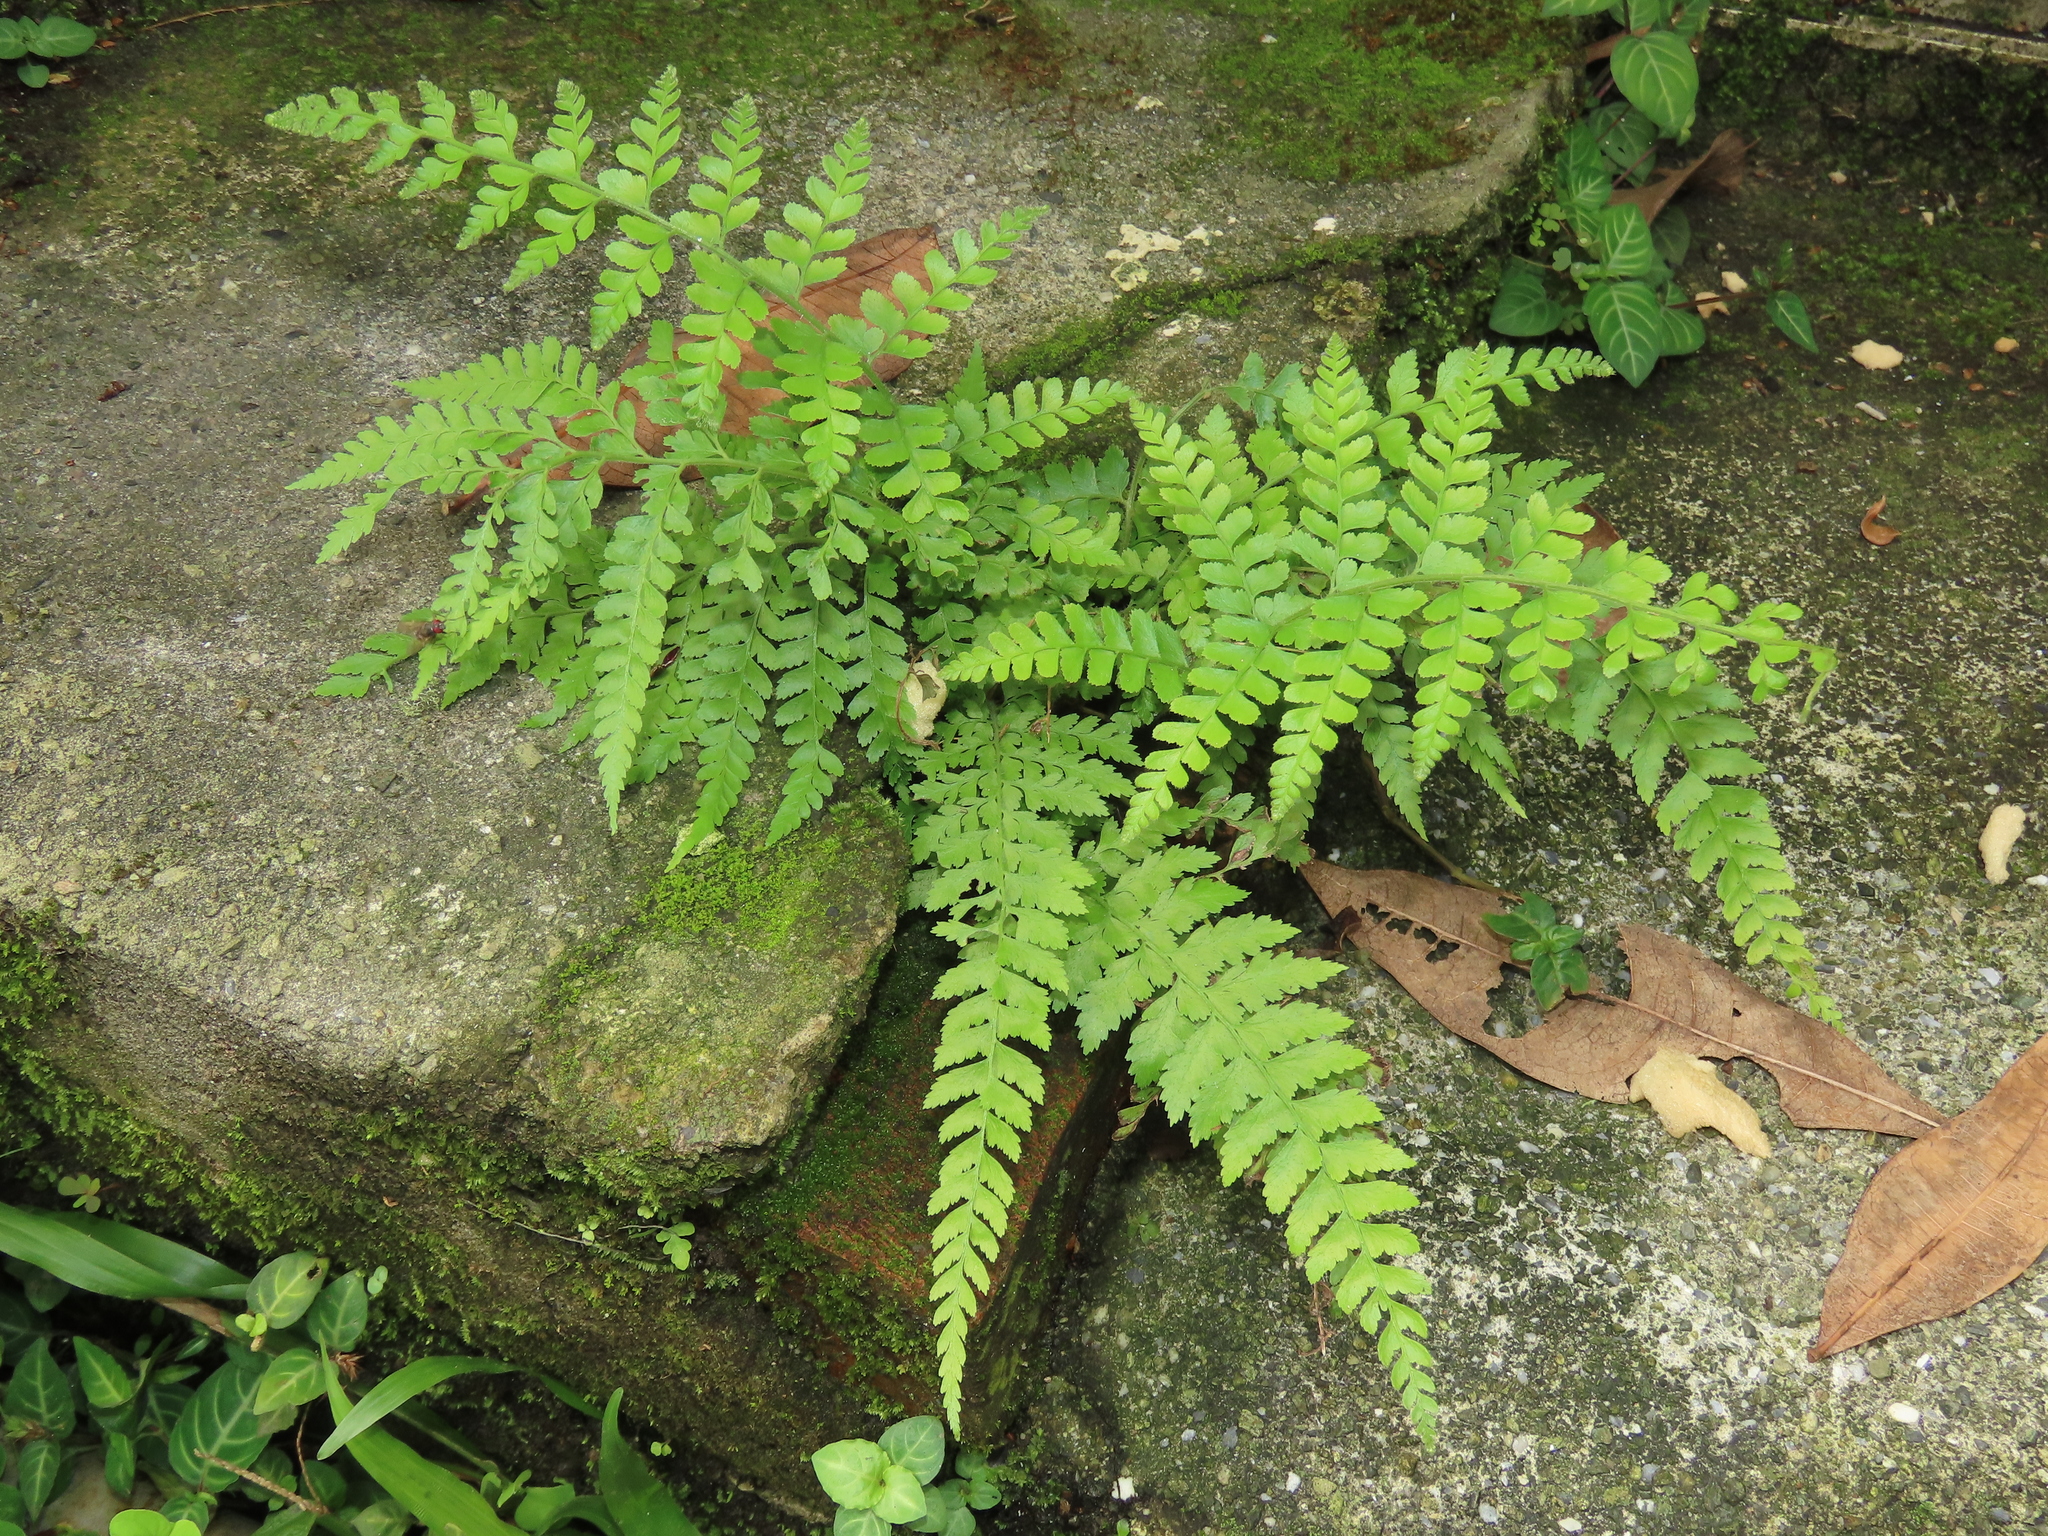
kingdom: Plantae
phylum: Tracheophyta
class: Polypodiopsida
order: Polypodiales
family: Dennstaedtiaceae
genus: Microlepia
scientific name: Microlepia strigosa
